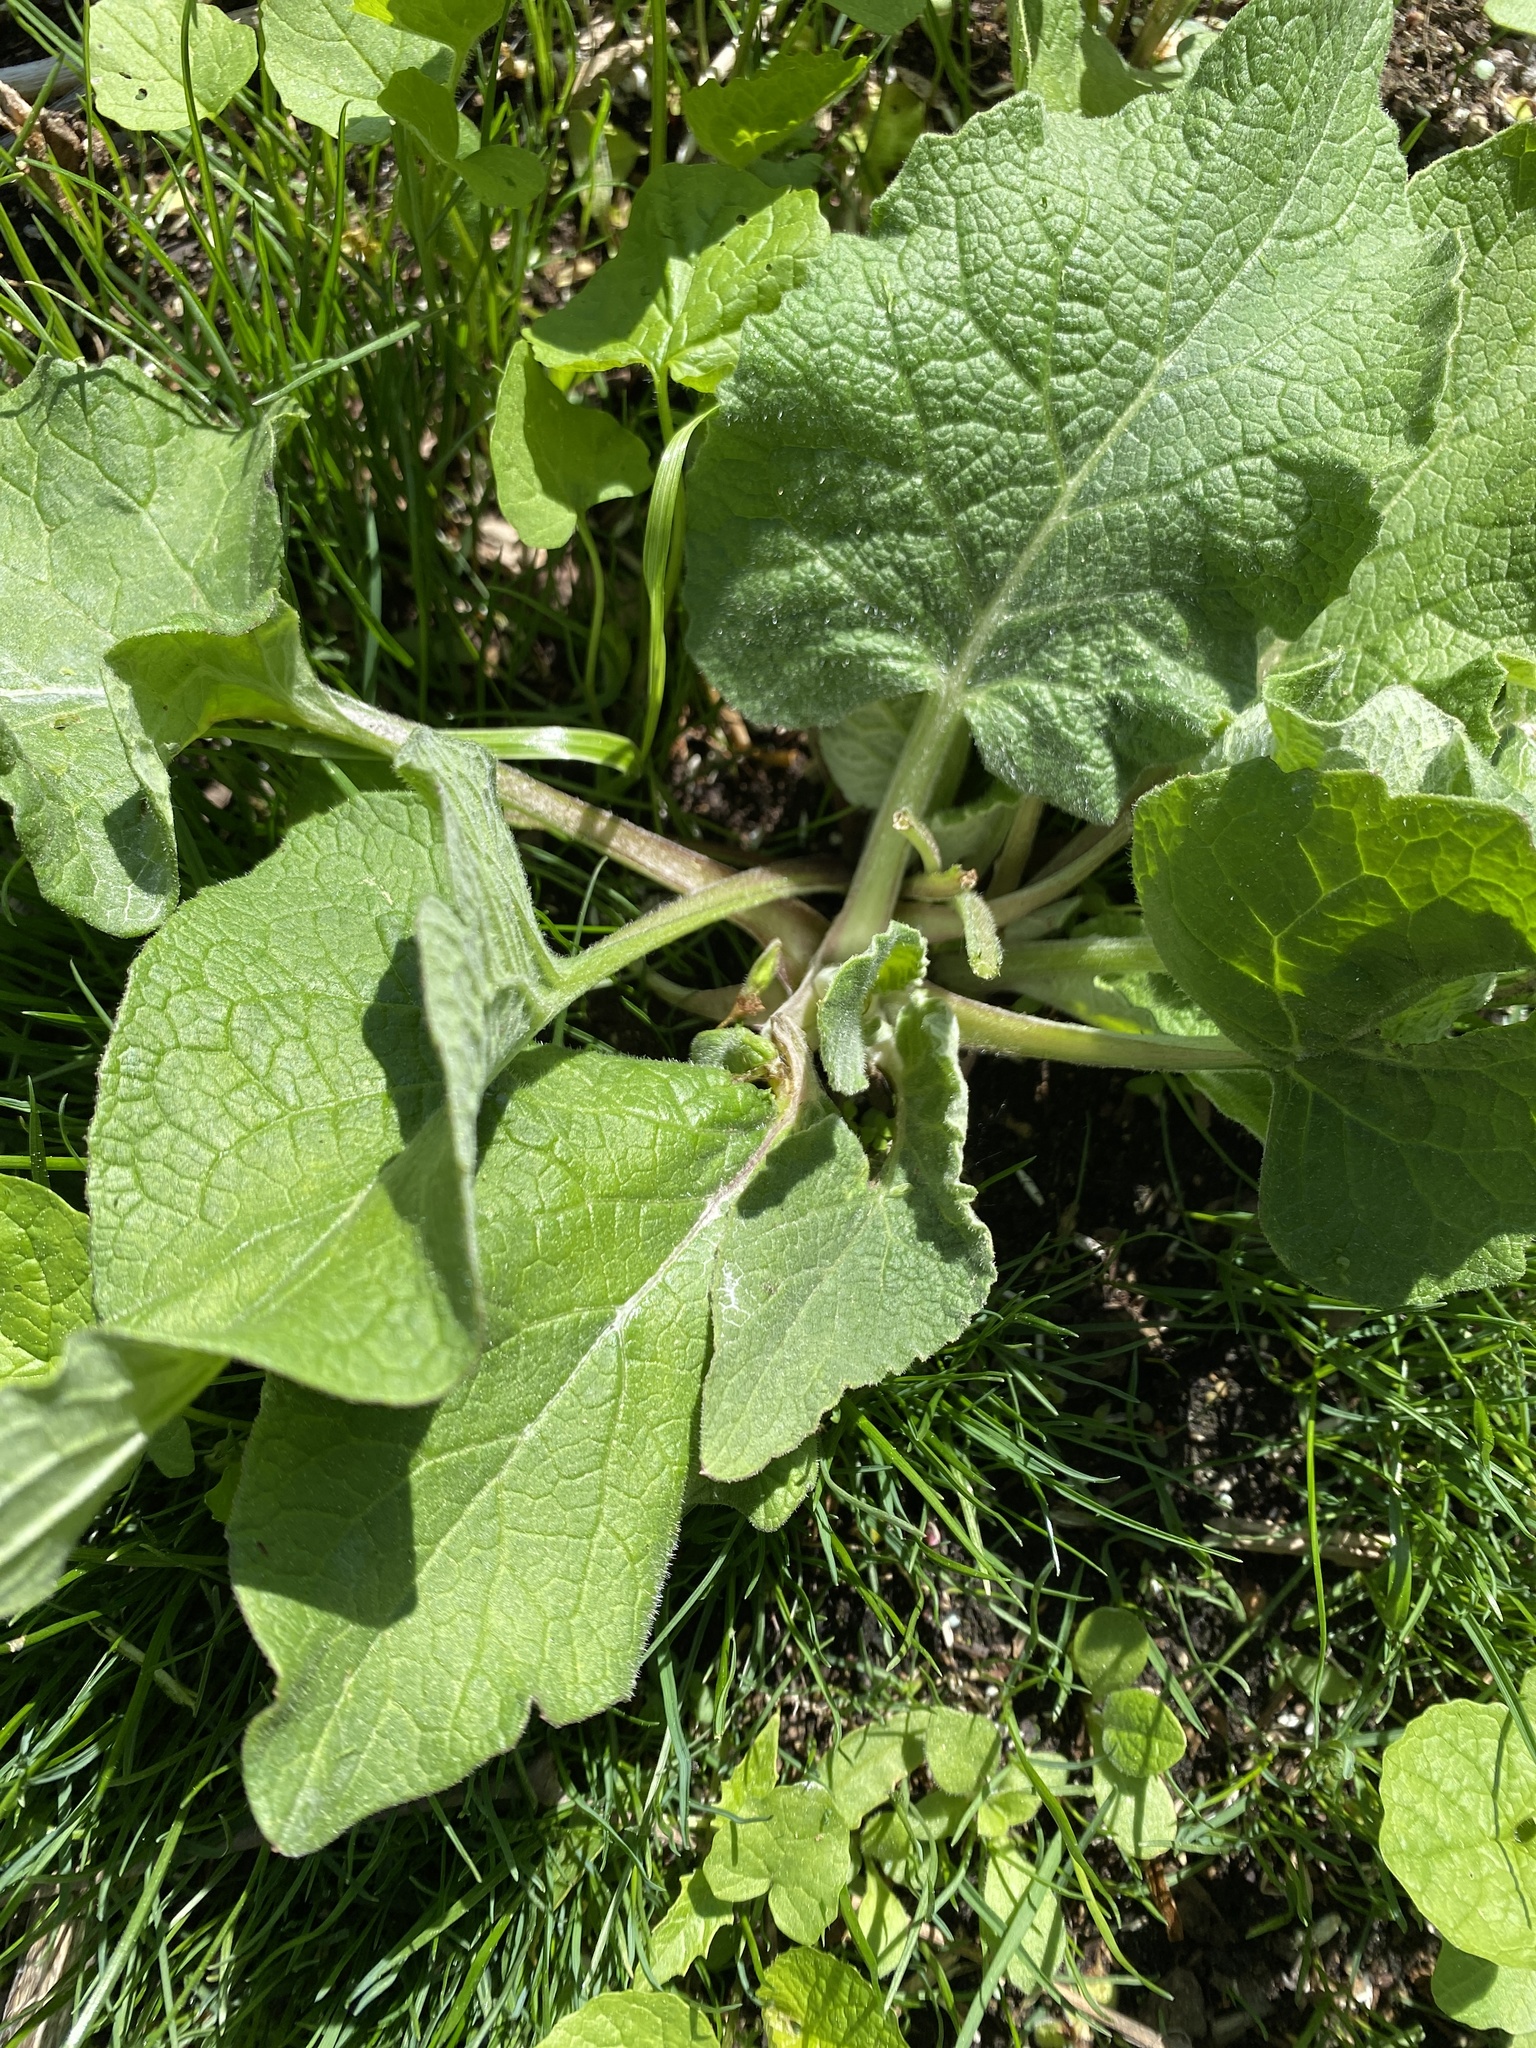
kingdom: Plantae
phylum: Tracheophyta
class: Magnoliopsida
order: Asterales
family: Asteraceae
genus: Arctium
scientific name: Arctium lappa
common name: Greater burdock
